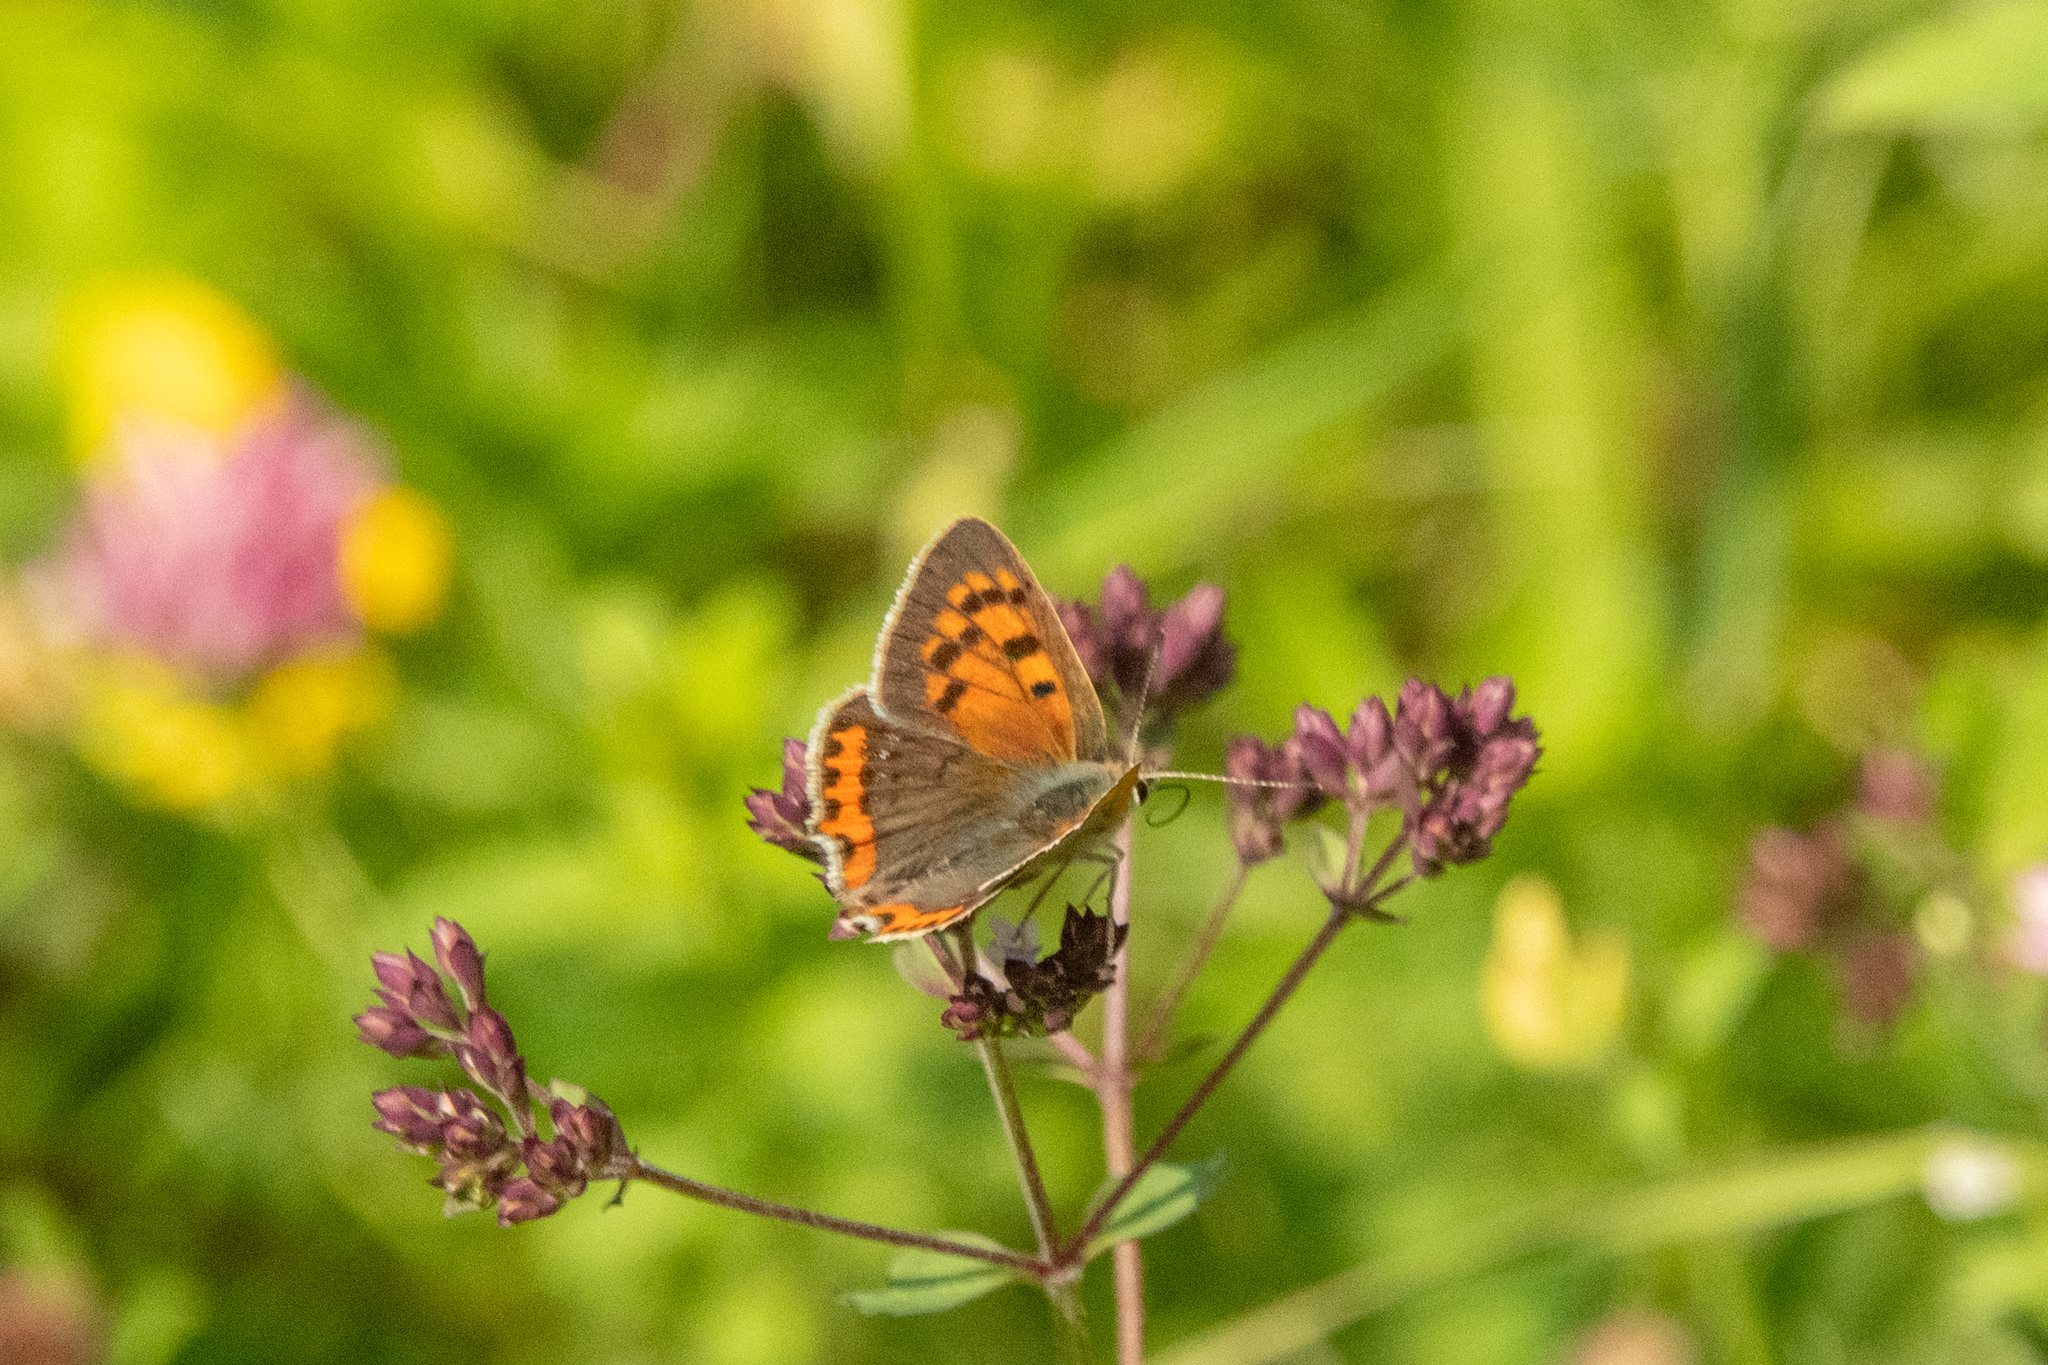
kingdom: Animalia
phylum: Arthropoda
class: Insecta
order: Lepidoptera
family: Lycaenidae
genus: Lycaena
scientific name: Lycaena phlaeas
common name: Small copper
